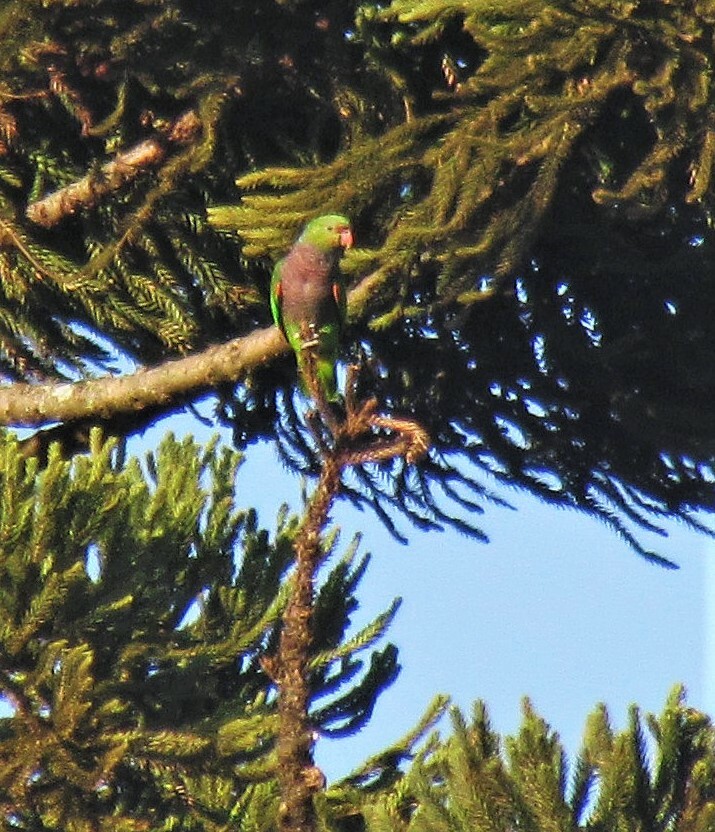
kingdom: Animalia
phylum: Chordata
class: Aves
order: Psittaciformes
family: Psittacidae
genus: Amazona
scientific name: Amazona vinacea
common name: Vinaceous-breasted amazon
